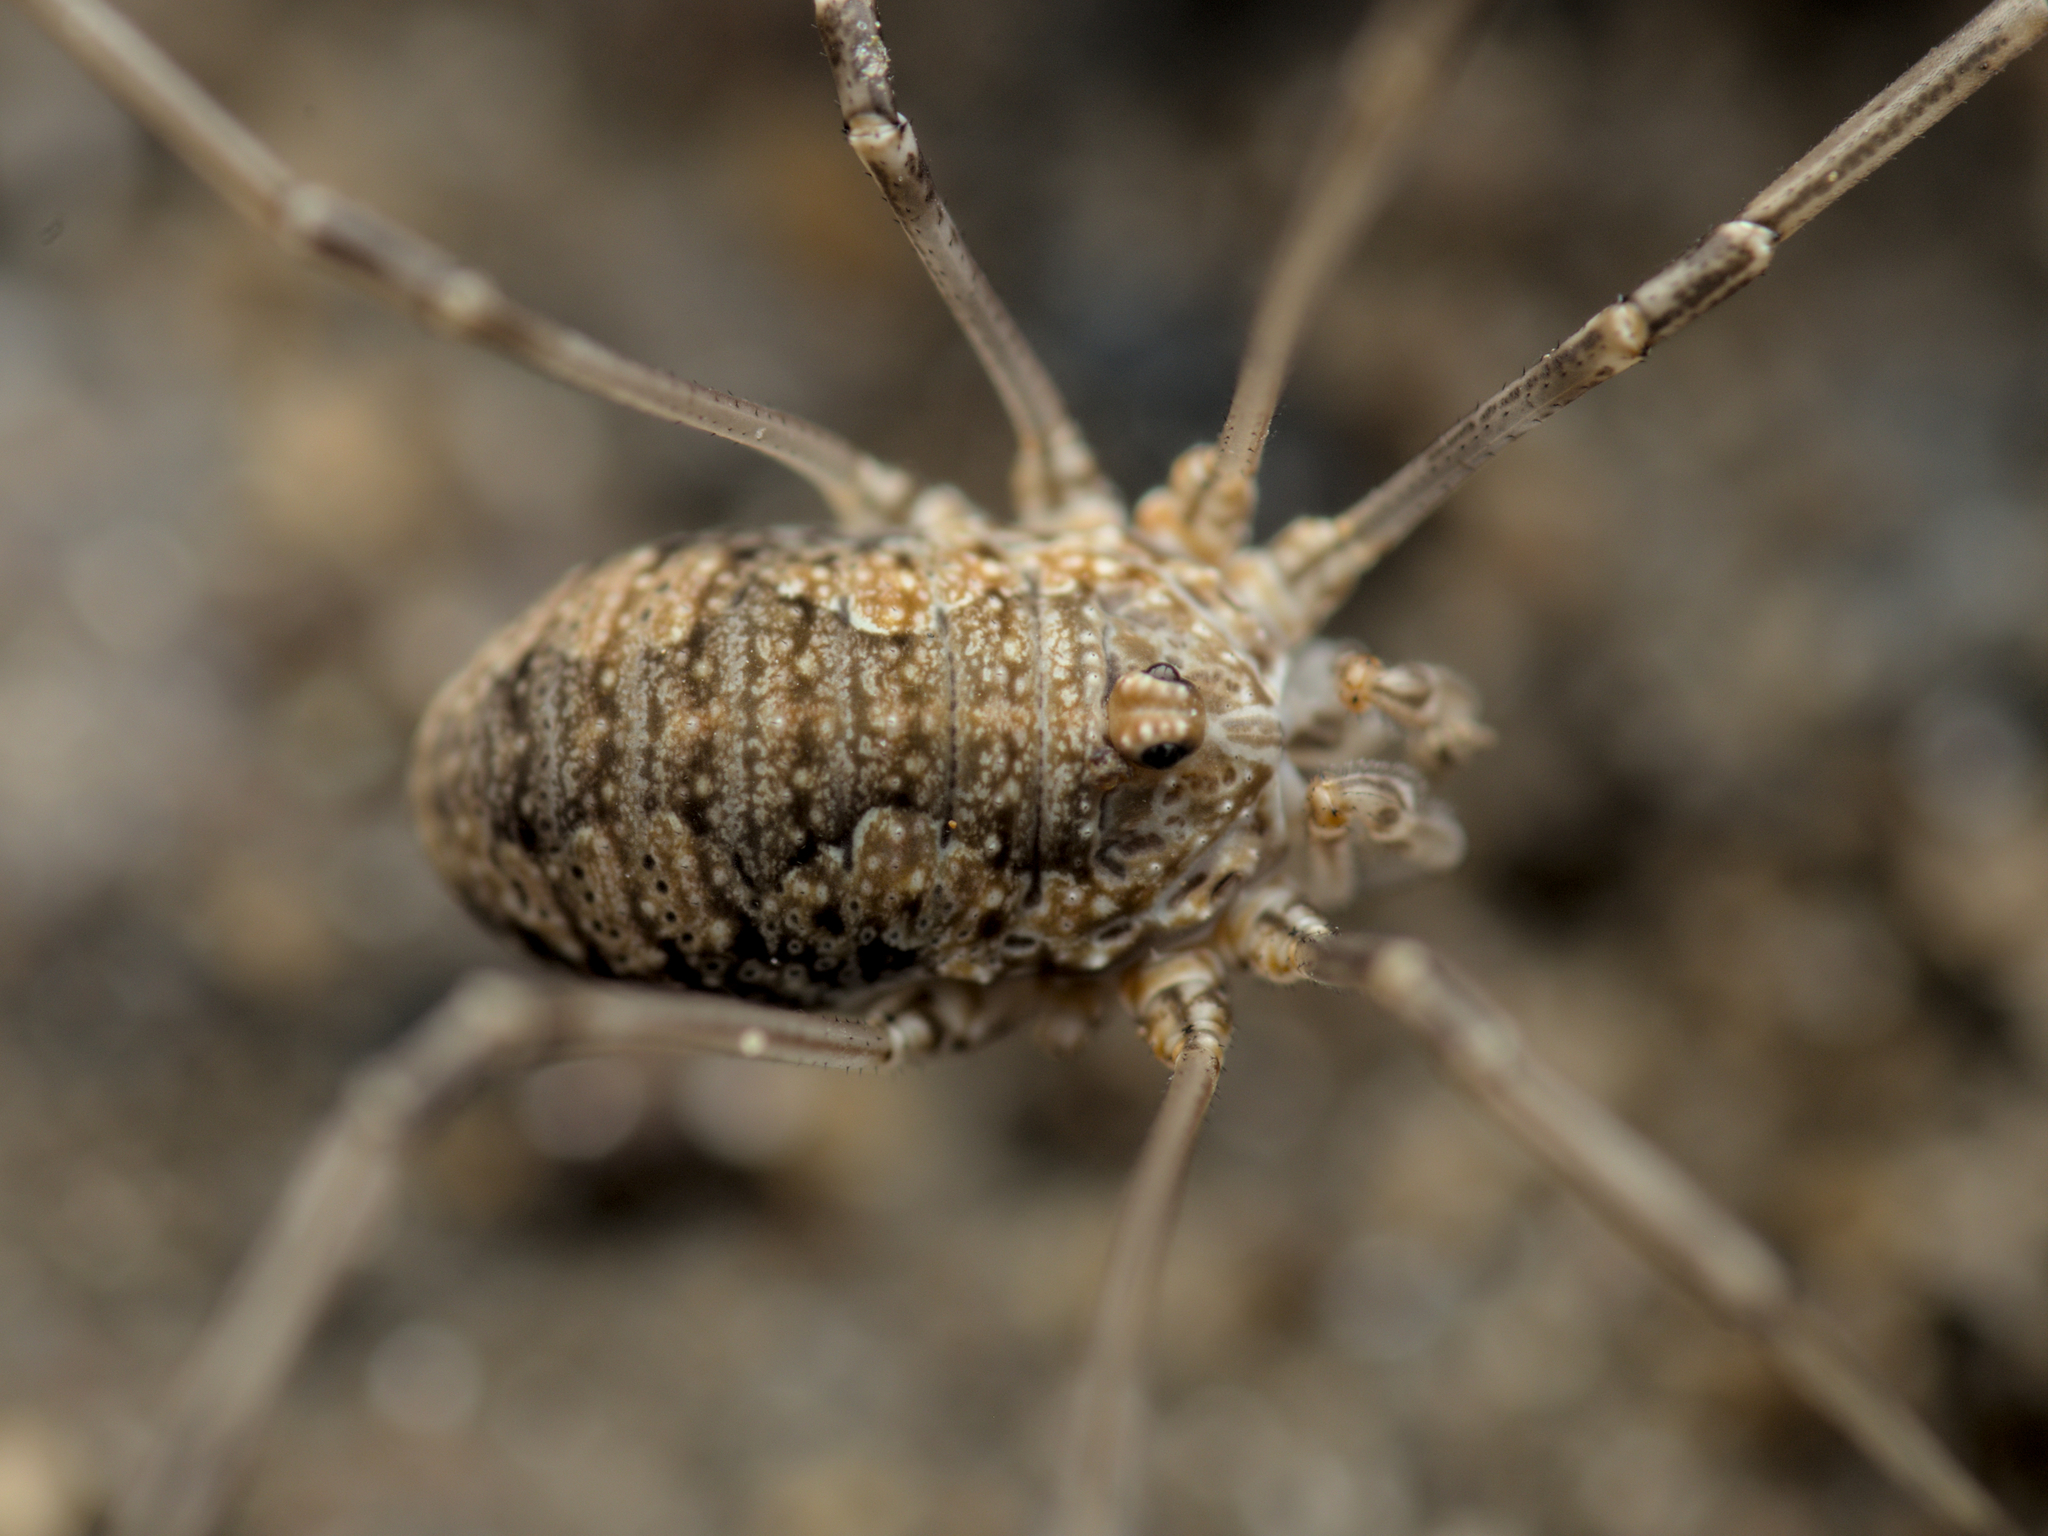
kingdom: Animalia
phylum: Arthropoda
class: Arachnida
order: Opiliones
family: Phalangiidae
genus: Phalangium
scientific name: Phalangium opilio
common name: Daddy longleg
